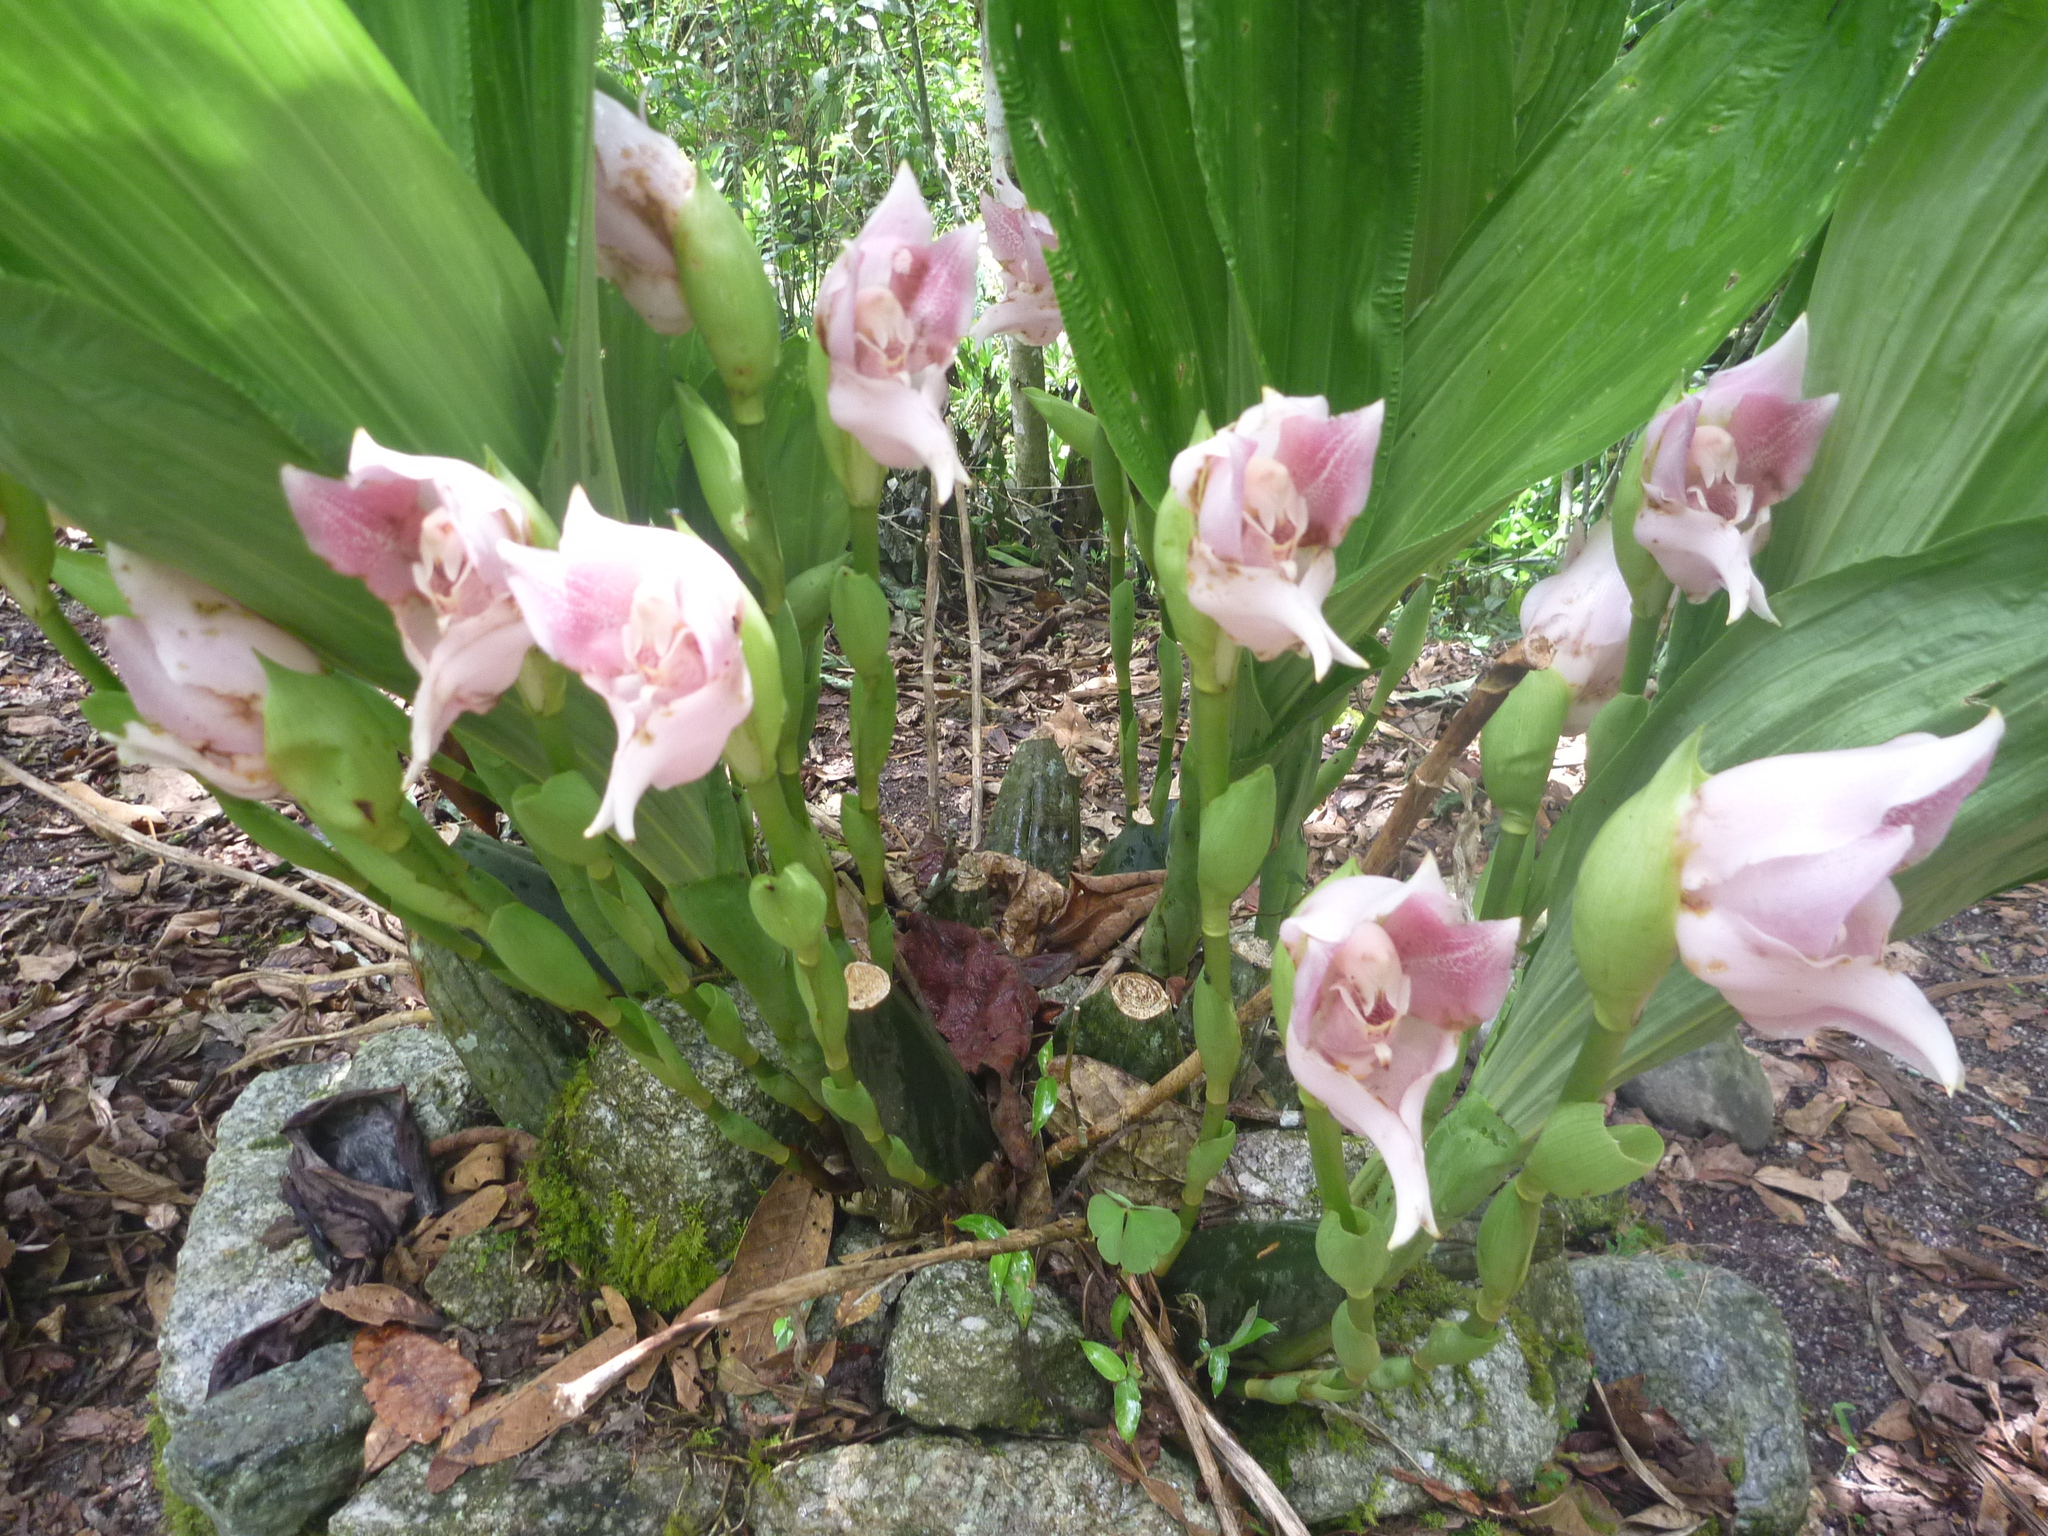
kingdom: Plantae
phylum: Tracheophyta
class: Liliopsida
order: Asparagales
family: Orchidaceae
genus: Anguloa
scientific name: Anguloa virginalis
